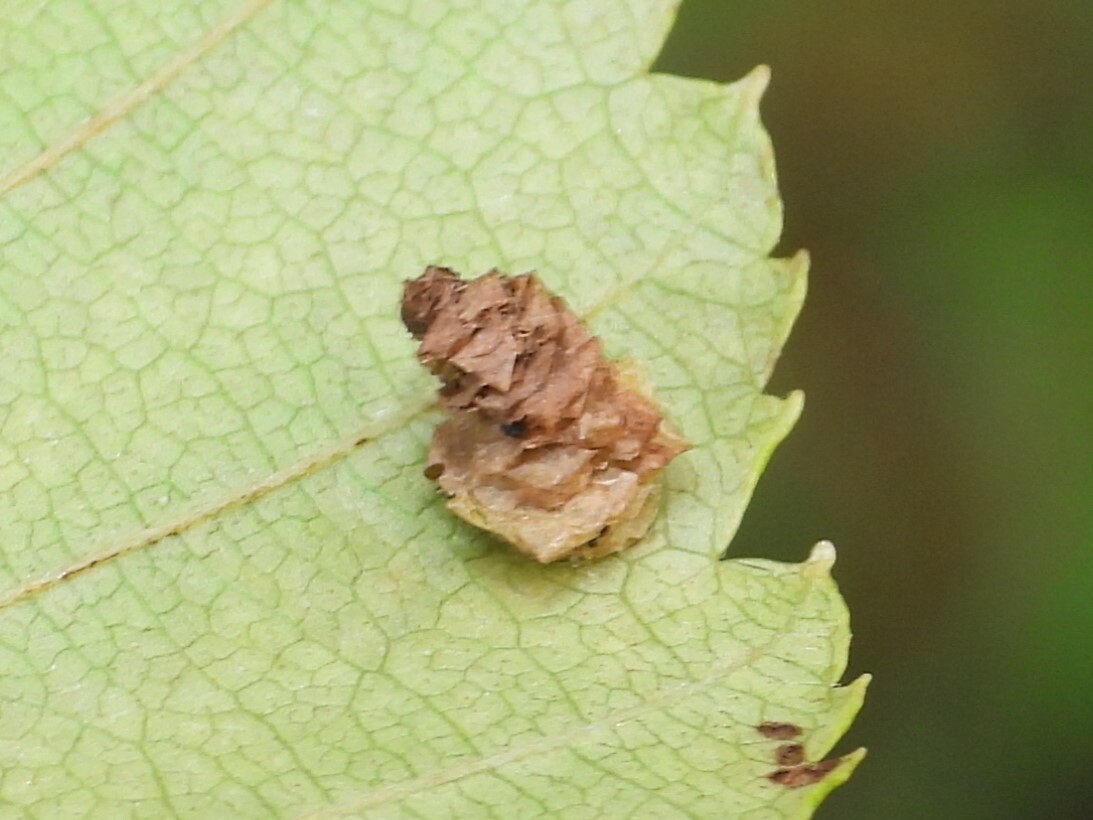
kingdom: Animalia
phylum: Arthropoda
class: Insecta
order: Lepidoptera
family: Coleophoridae
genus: Coleophora
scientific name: Coleophora persimplexella
